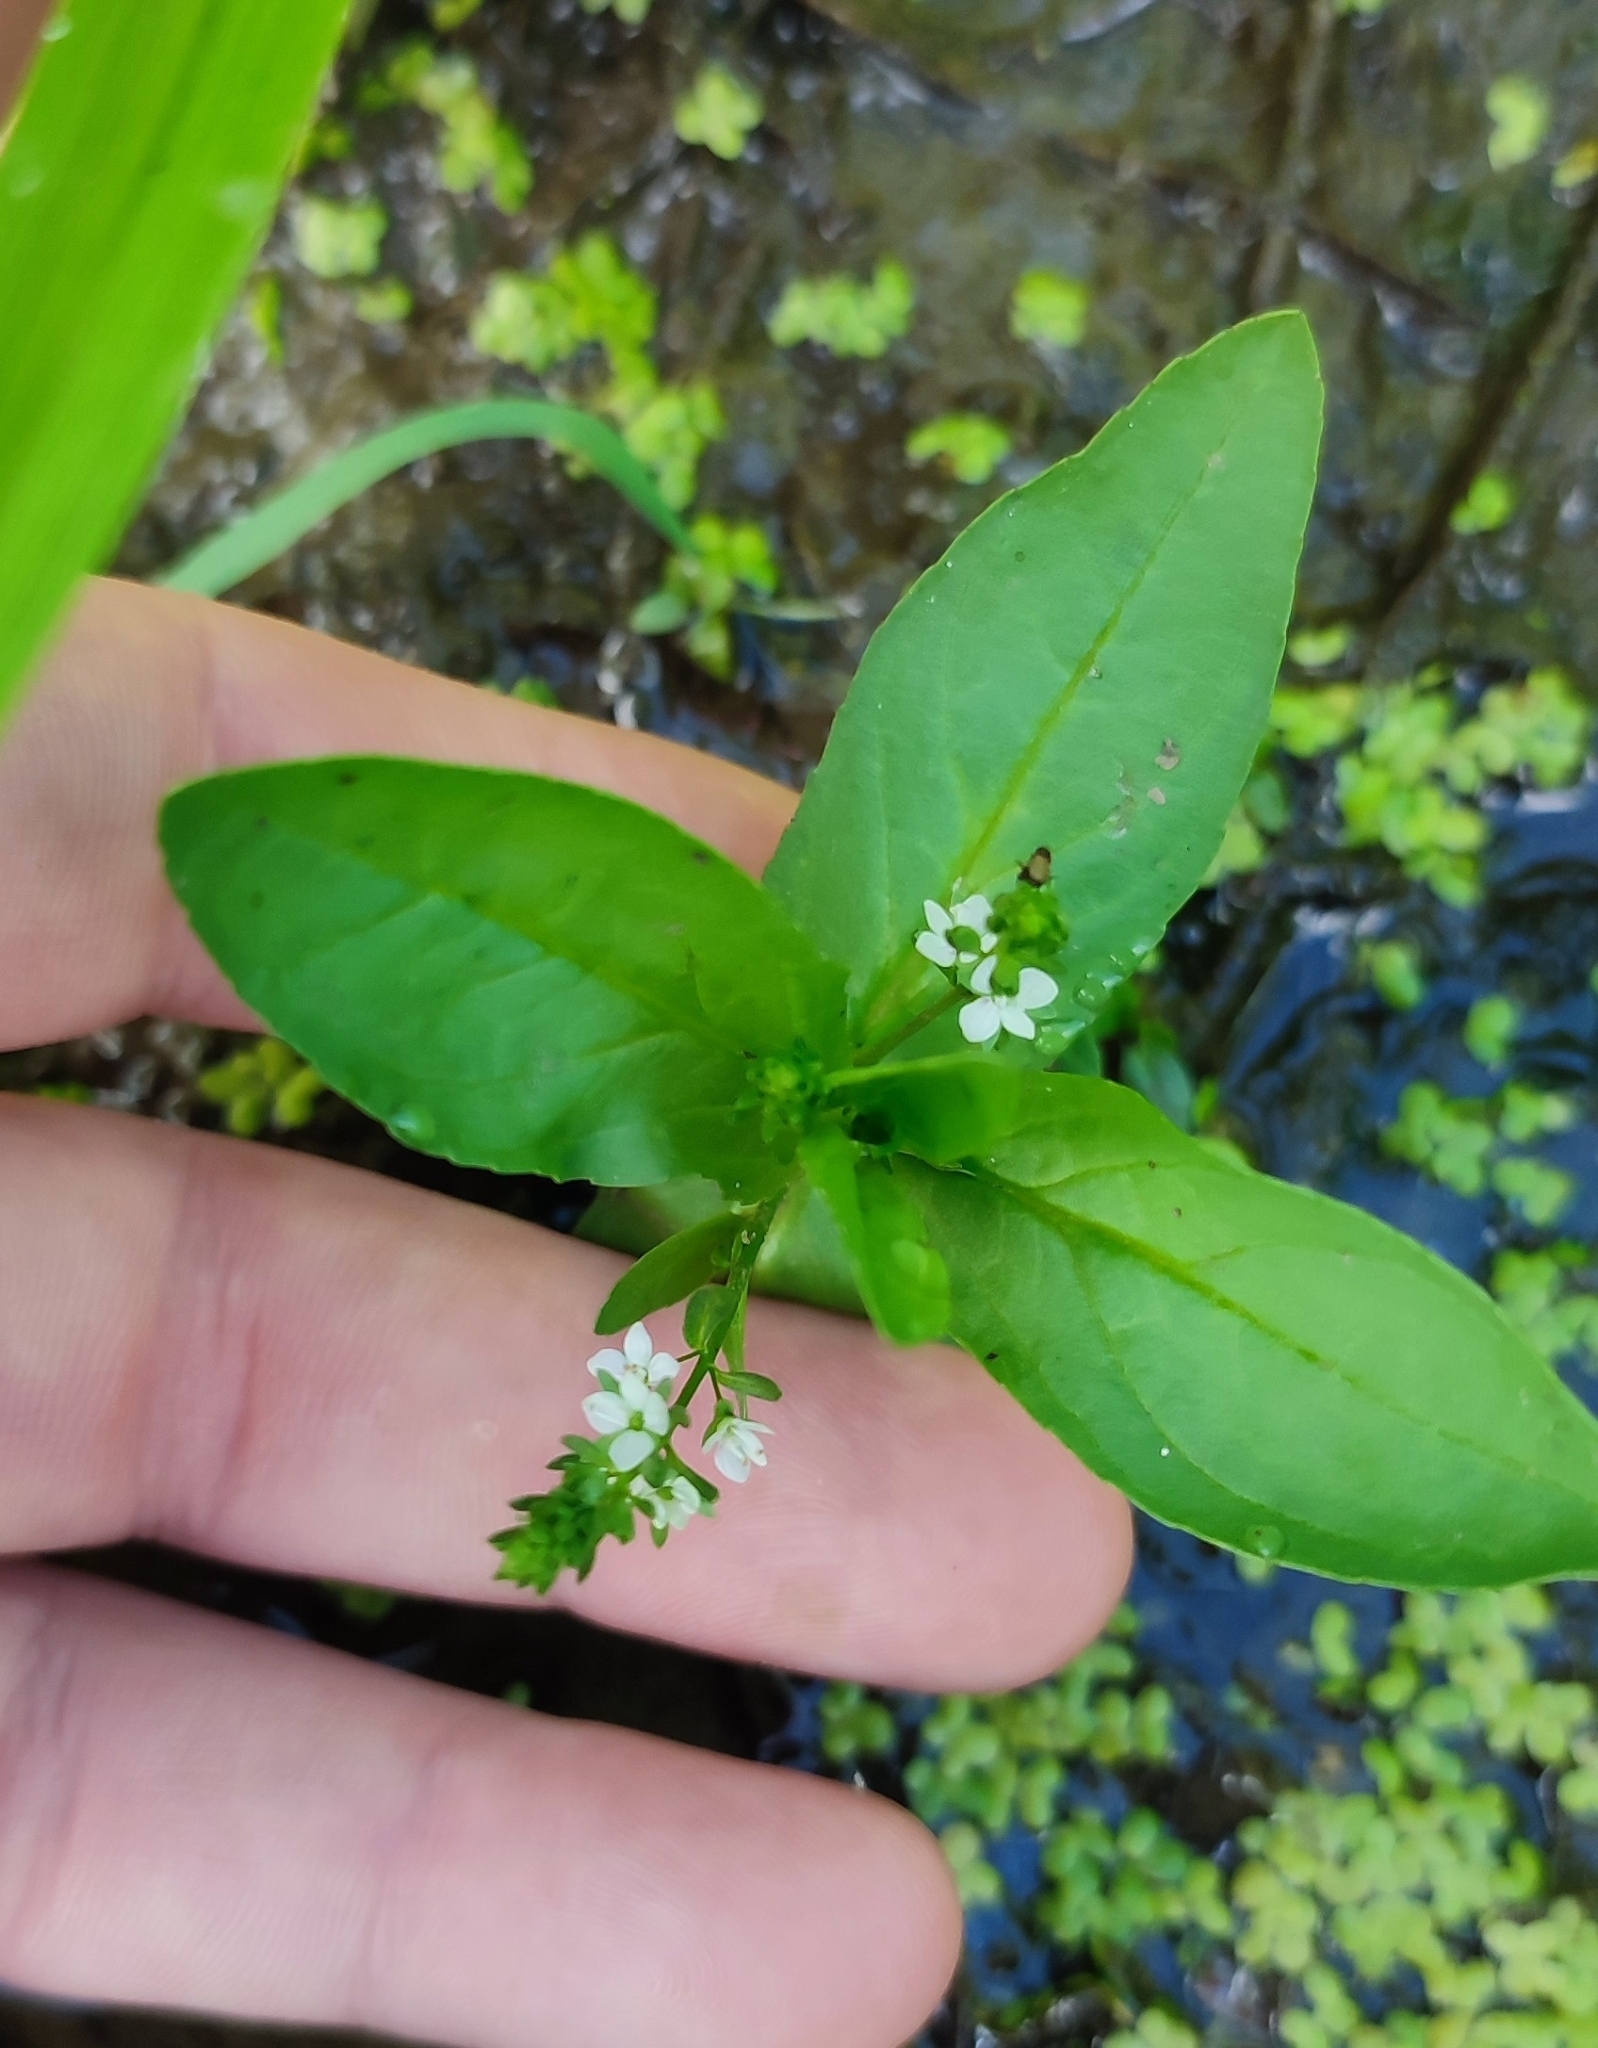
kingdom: Plantae
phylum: Tracheophyta
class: Magnoliopsida
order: Lamiales
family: Plantaginaceae
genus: Veronica
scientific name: Veronica anagallis-aquatica
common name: Water speedwell
